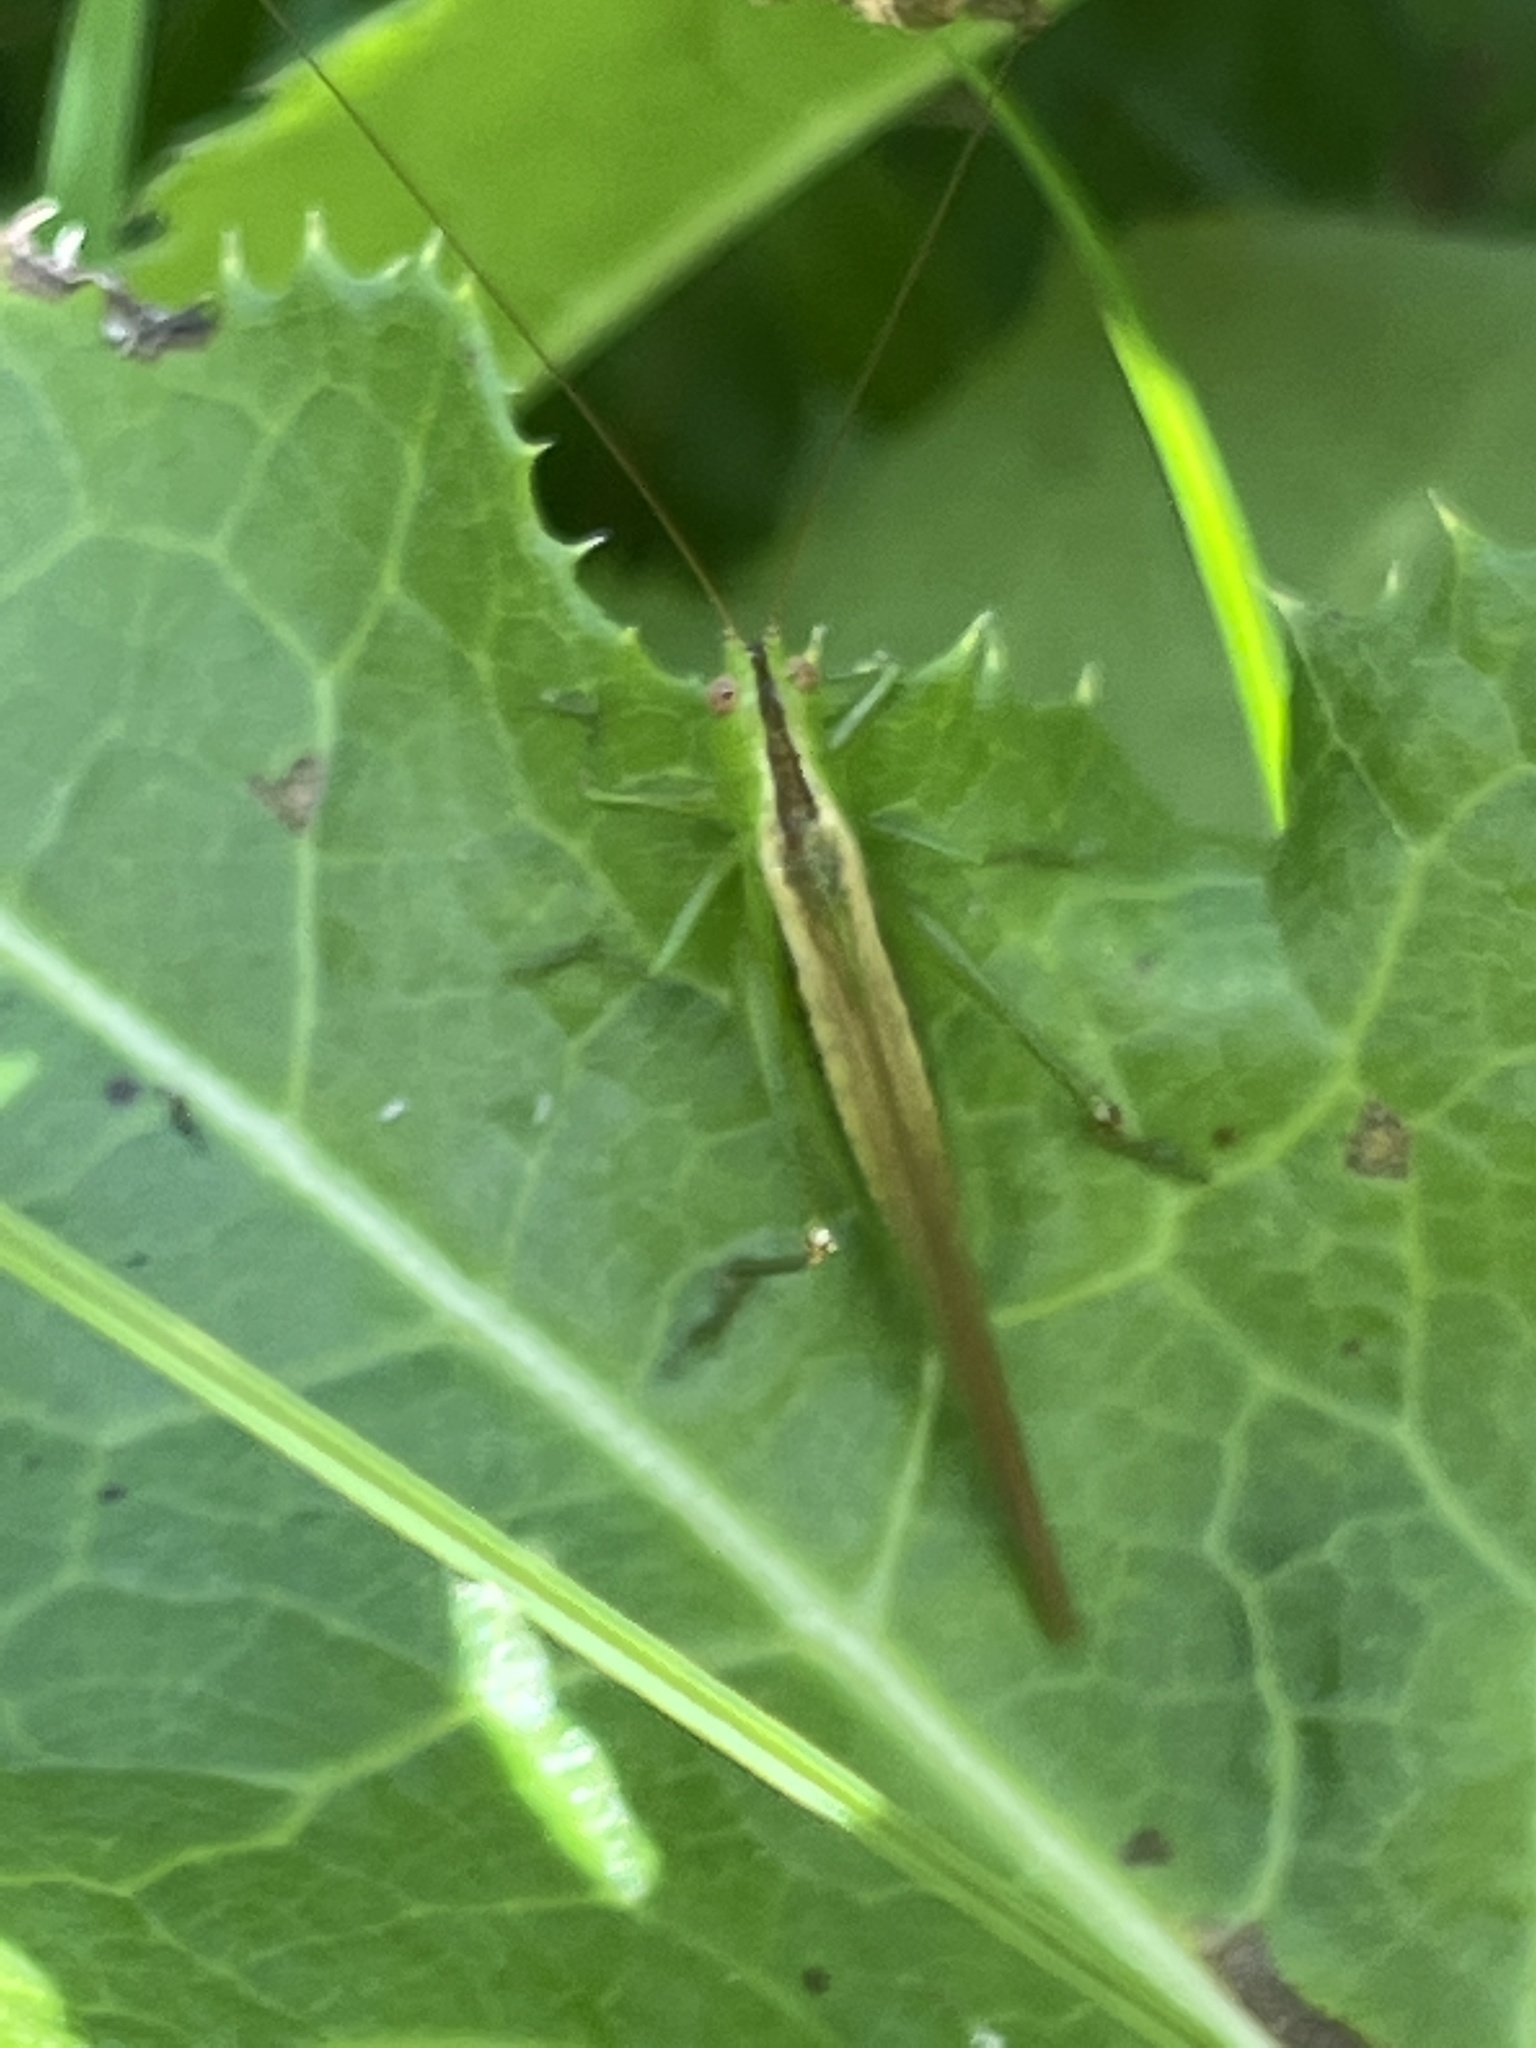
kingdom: Animalia
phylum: Arthropoda
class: Insecta
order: Orthoptera
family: Tettigoniidae
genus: Conocephalus
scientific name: Conocephalus fasciatus
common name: Slender meadow katydid
